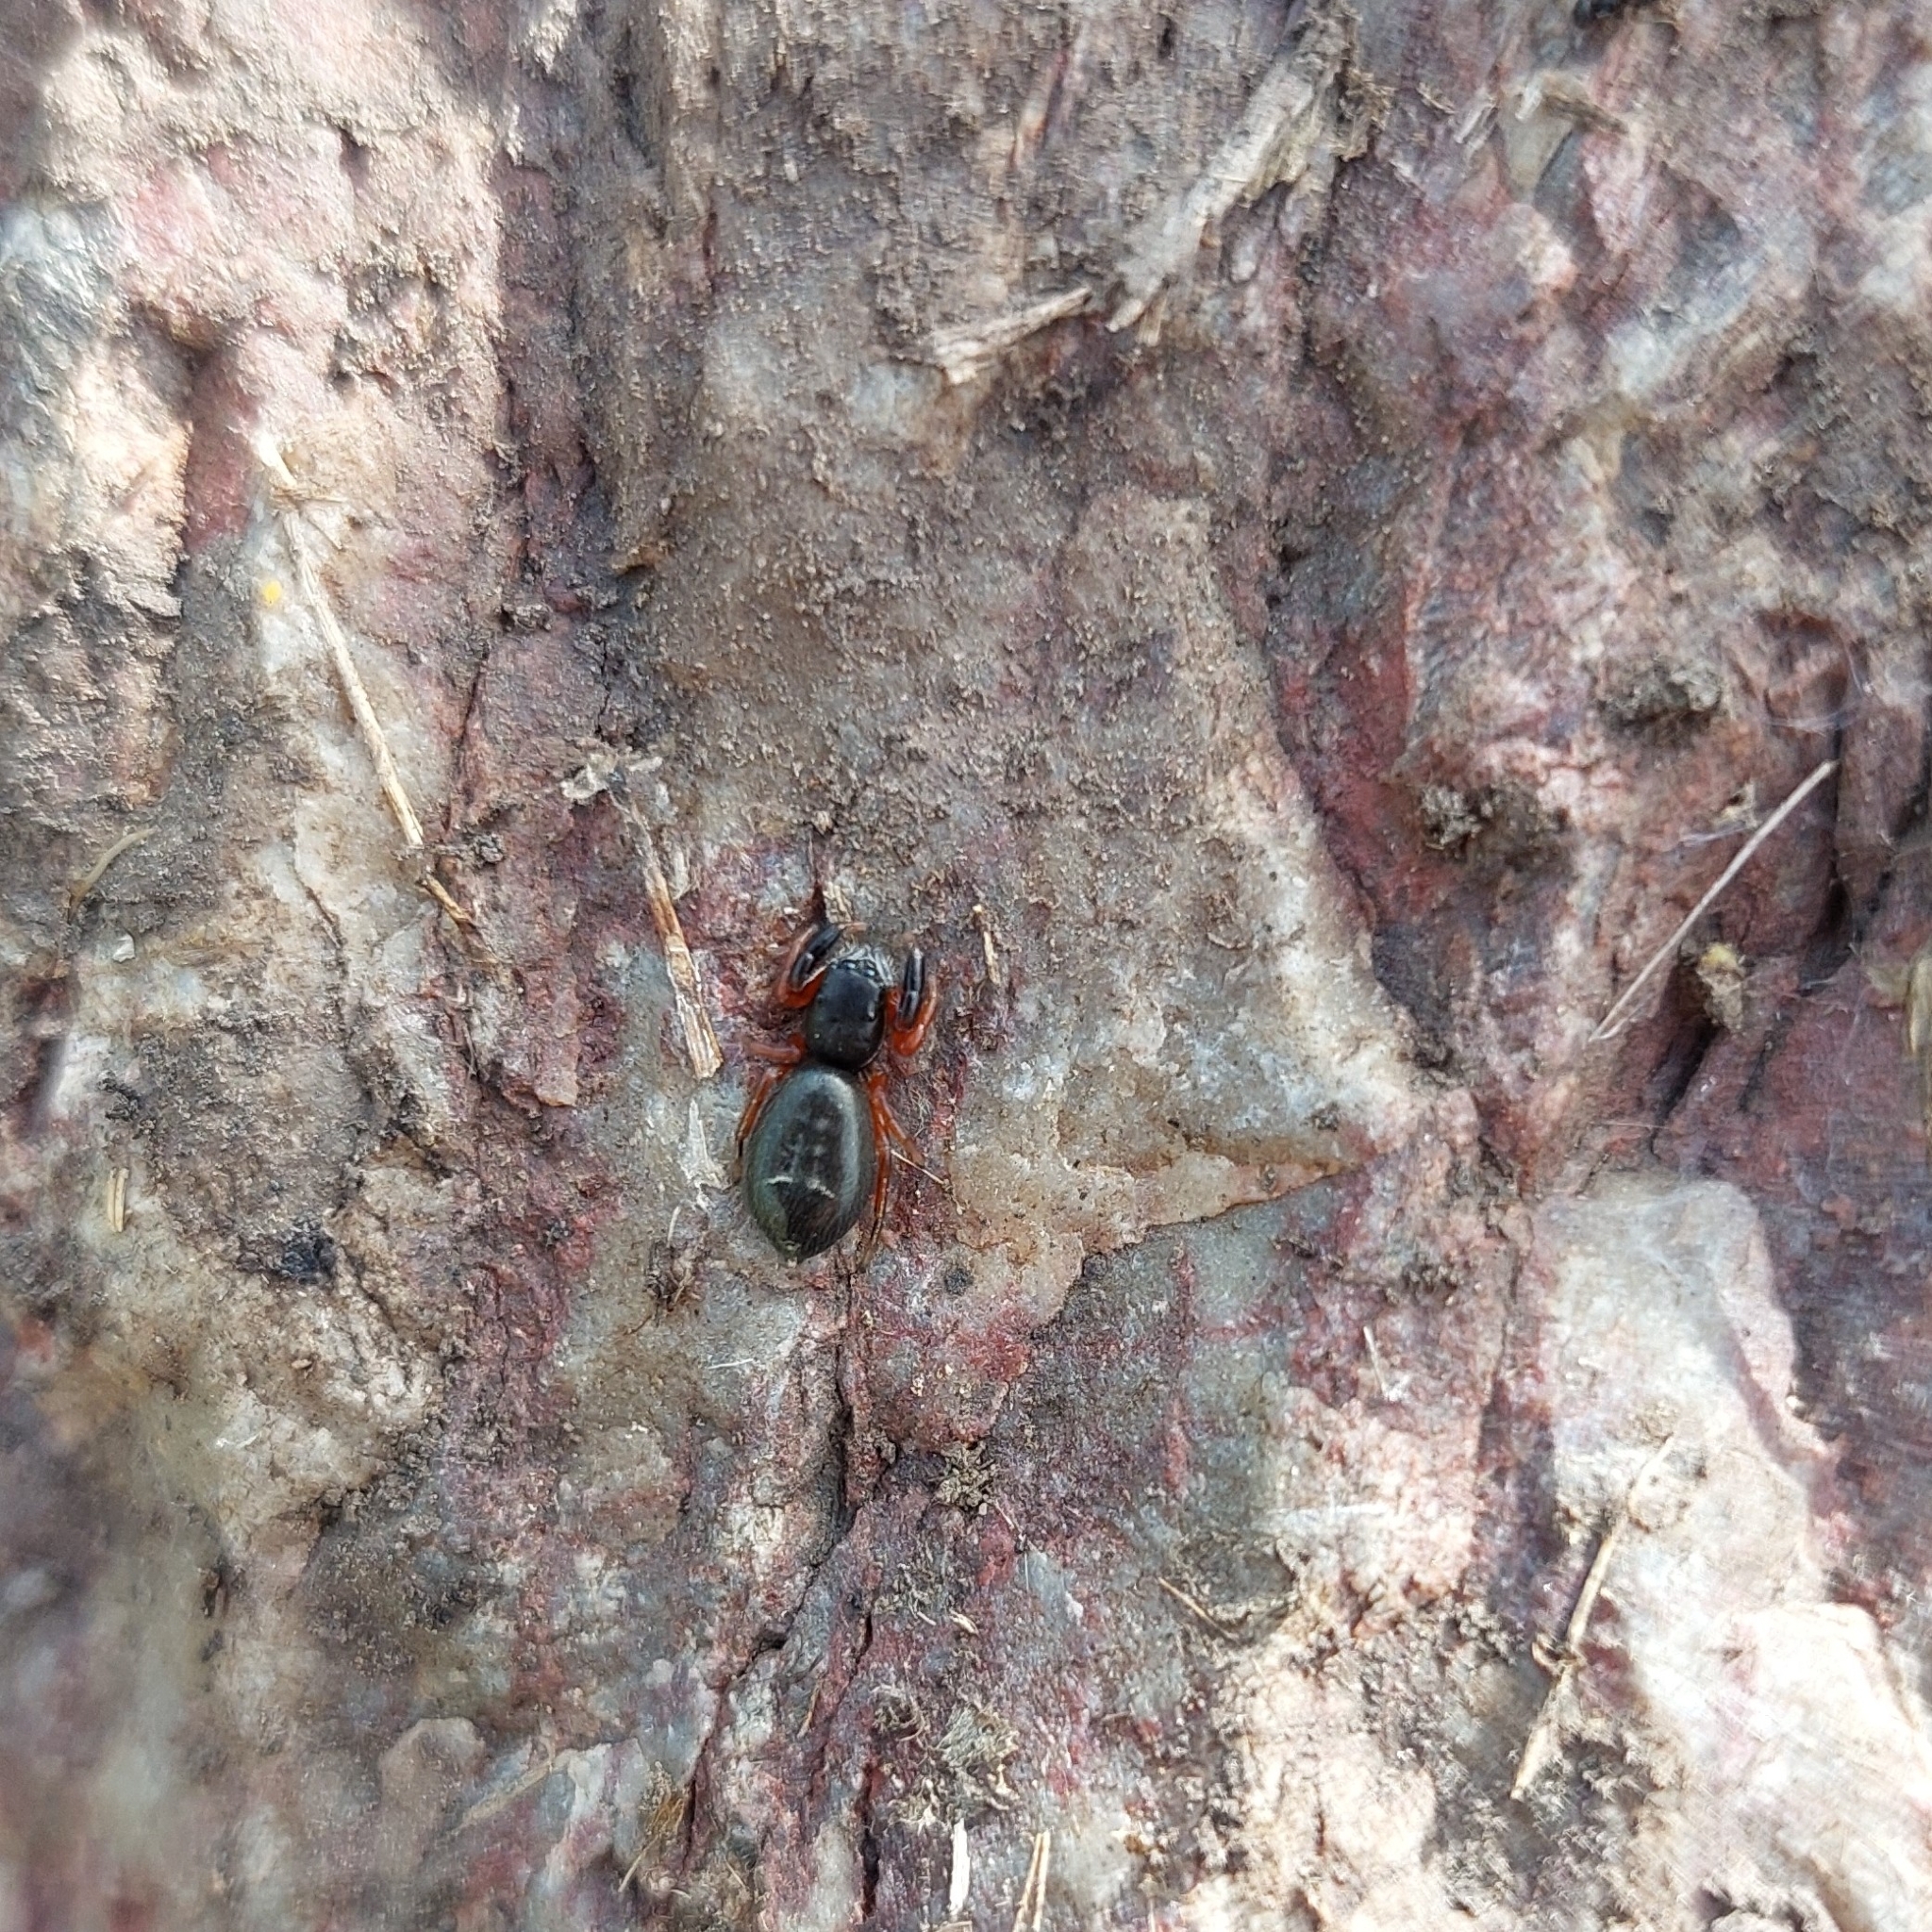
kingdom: Animalia
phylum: Arthropoda
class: Arachnida
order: Araneae
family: Salticidae
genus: Breda
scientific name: Breda tristis
